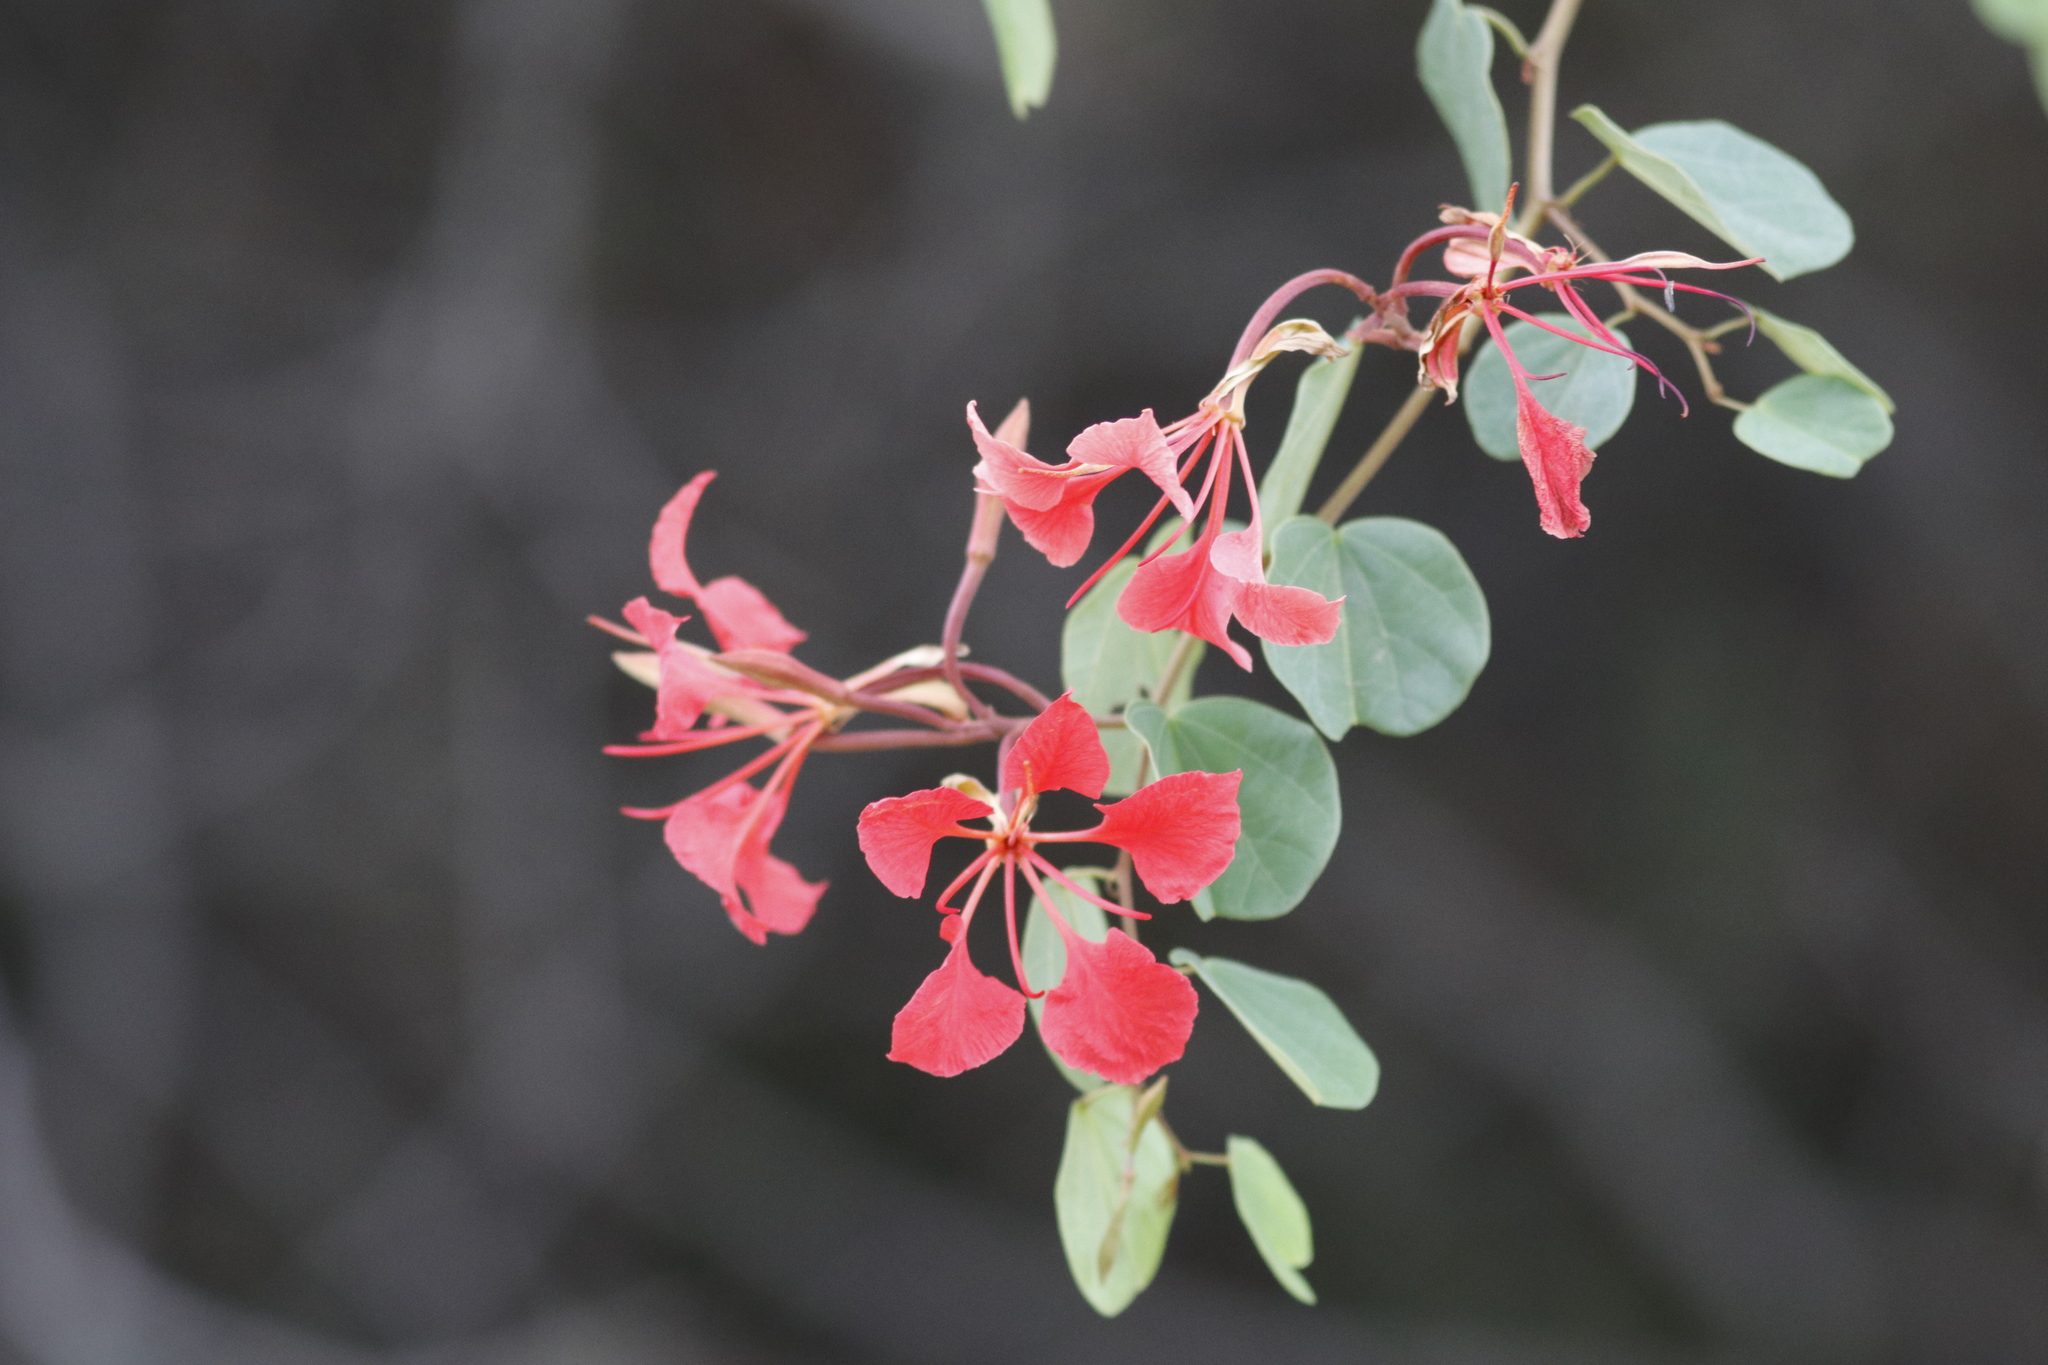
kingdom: Plantae
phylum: Tracheophyta
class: Magnoliopsida
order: Fabales
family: Fabaceae
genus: Bauhinia
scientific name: Bauhinia galpinii
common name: African plume
